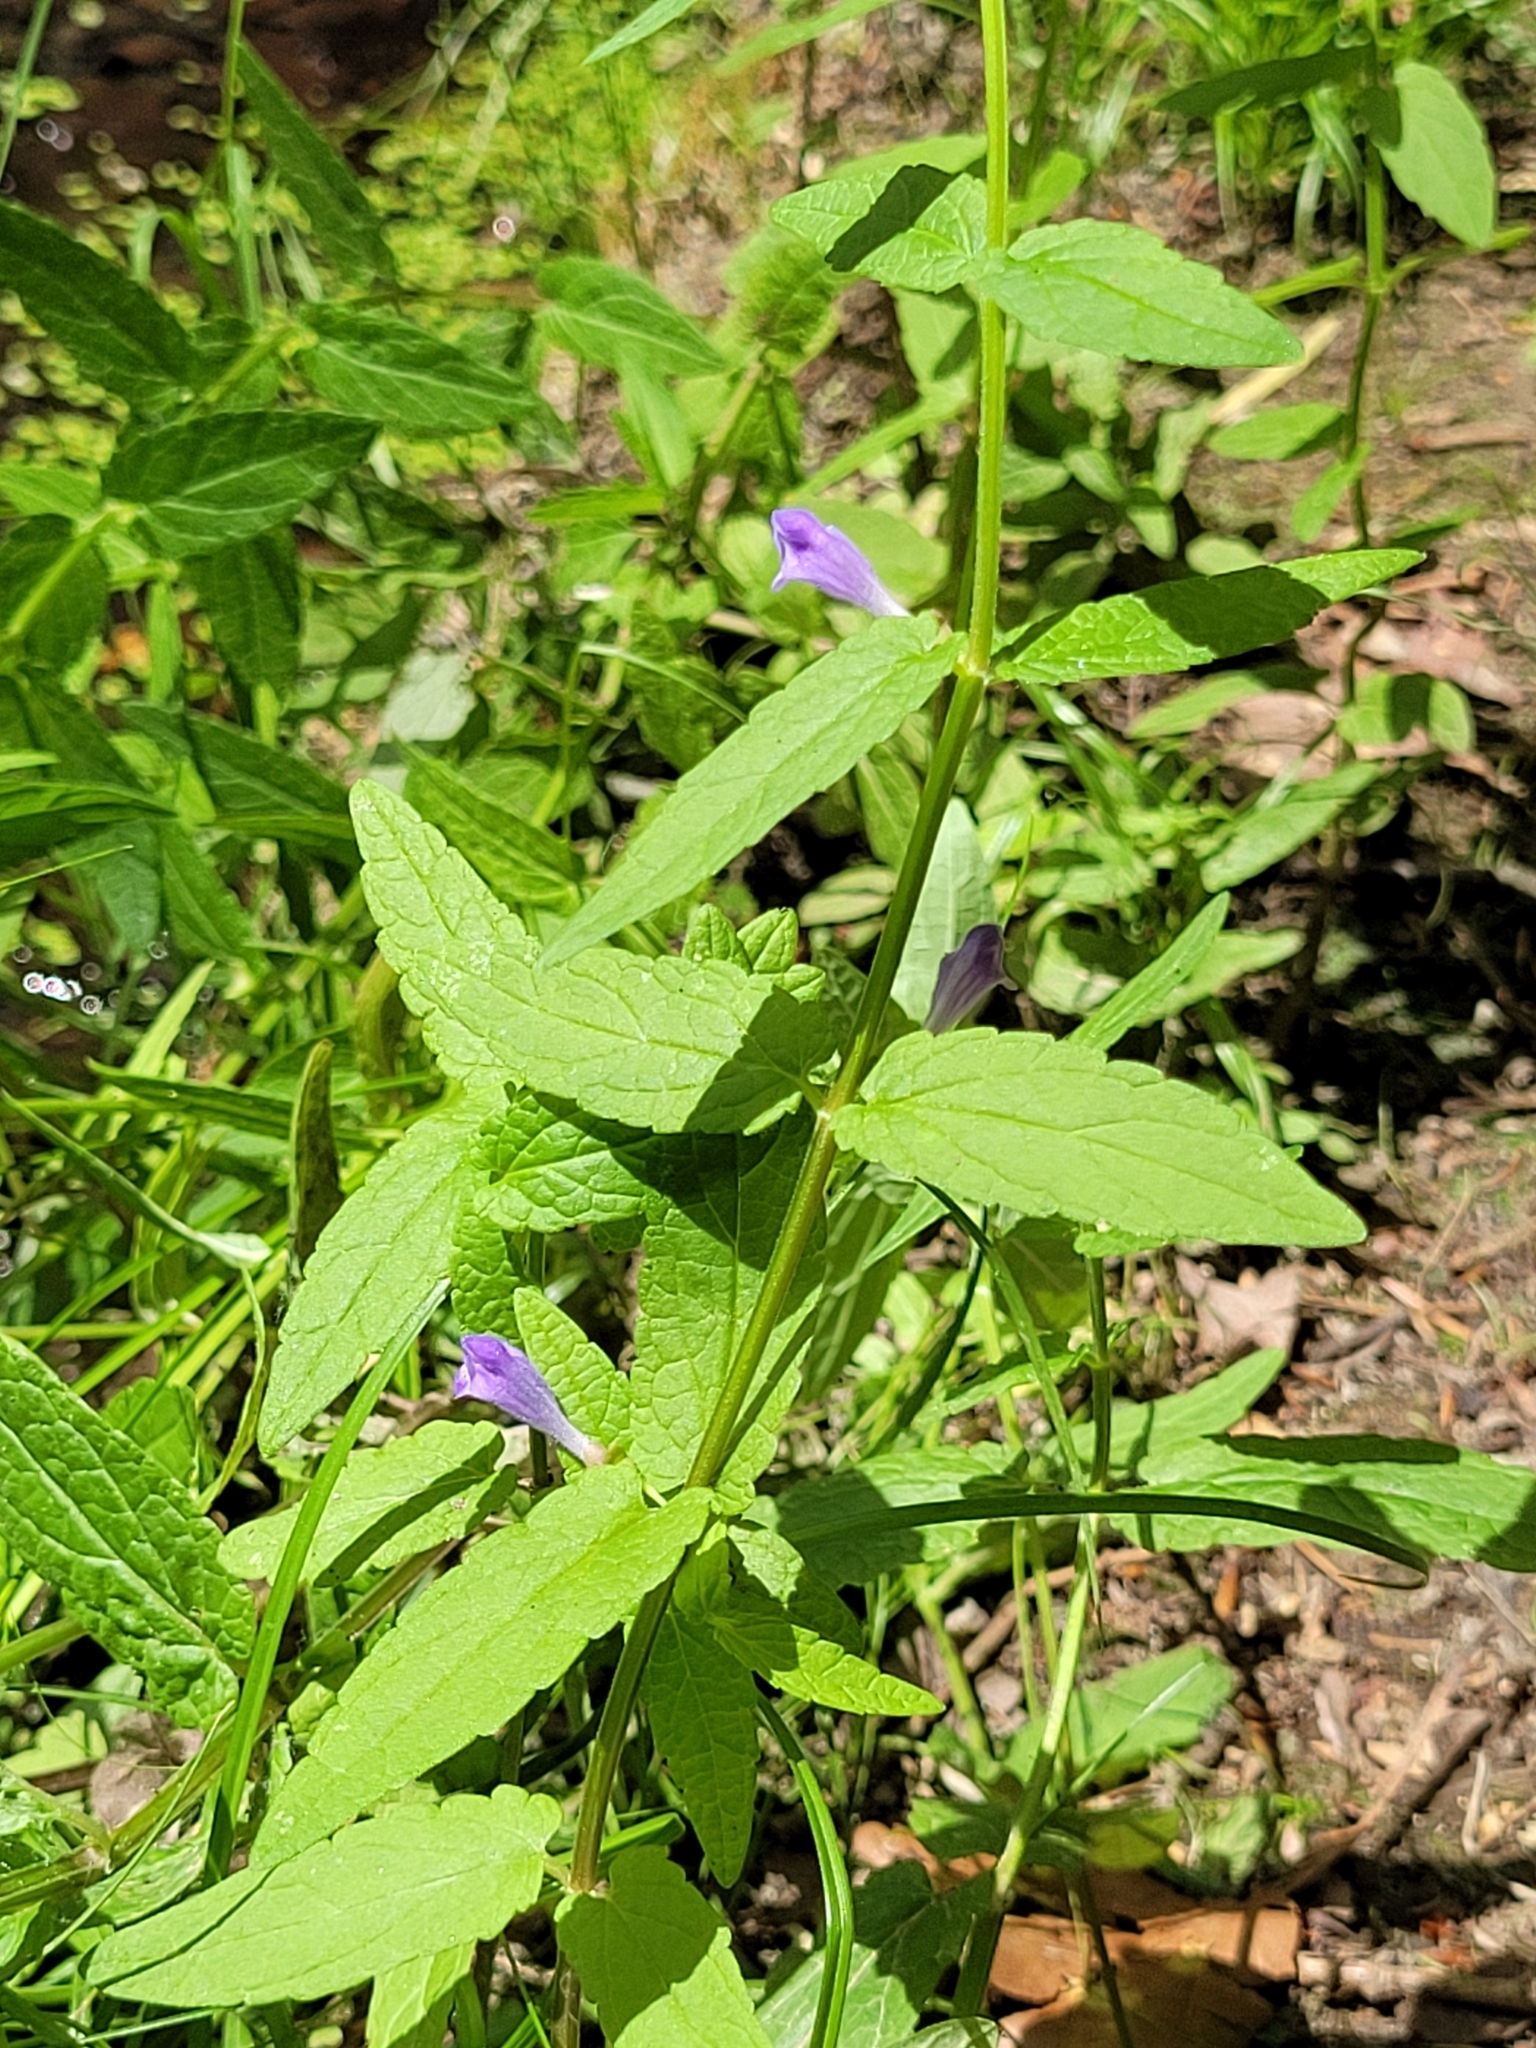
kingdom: Plantae
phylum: Tracheophyta
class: Magnoliopsida
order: Lamiales
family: Lamiaceae
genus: Scutellaria
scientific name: Scutellaria galericulata
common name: Skullcap
